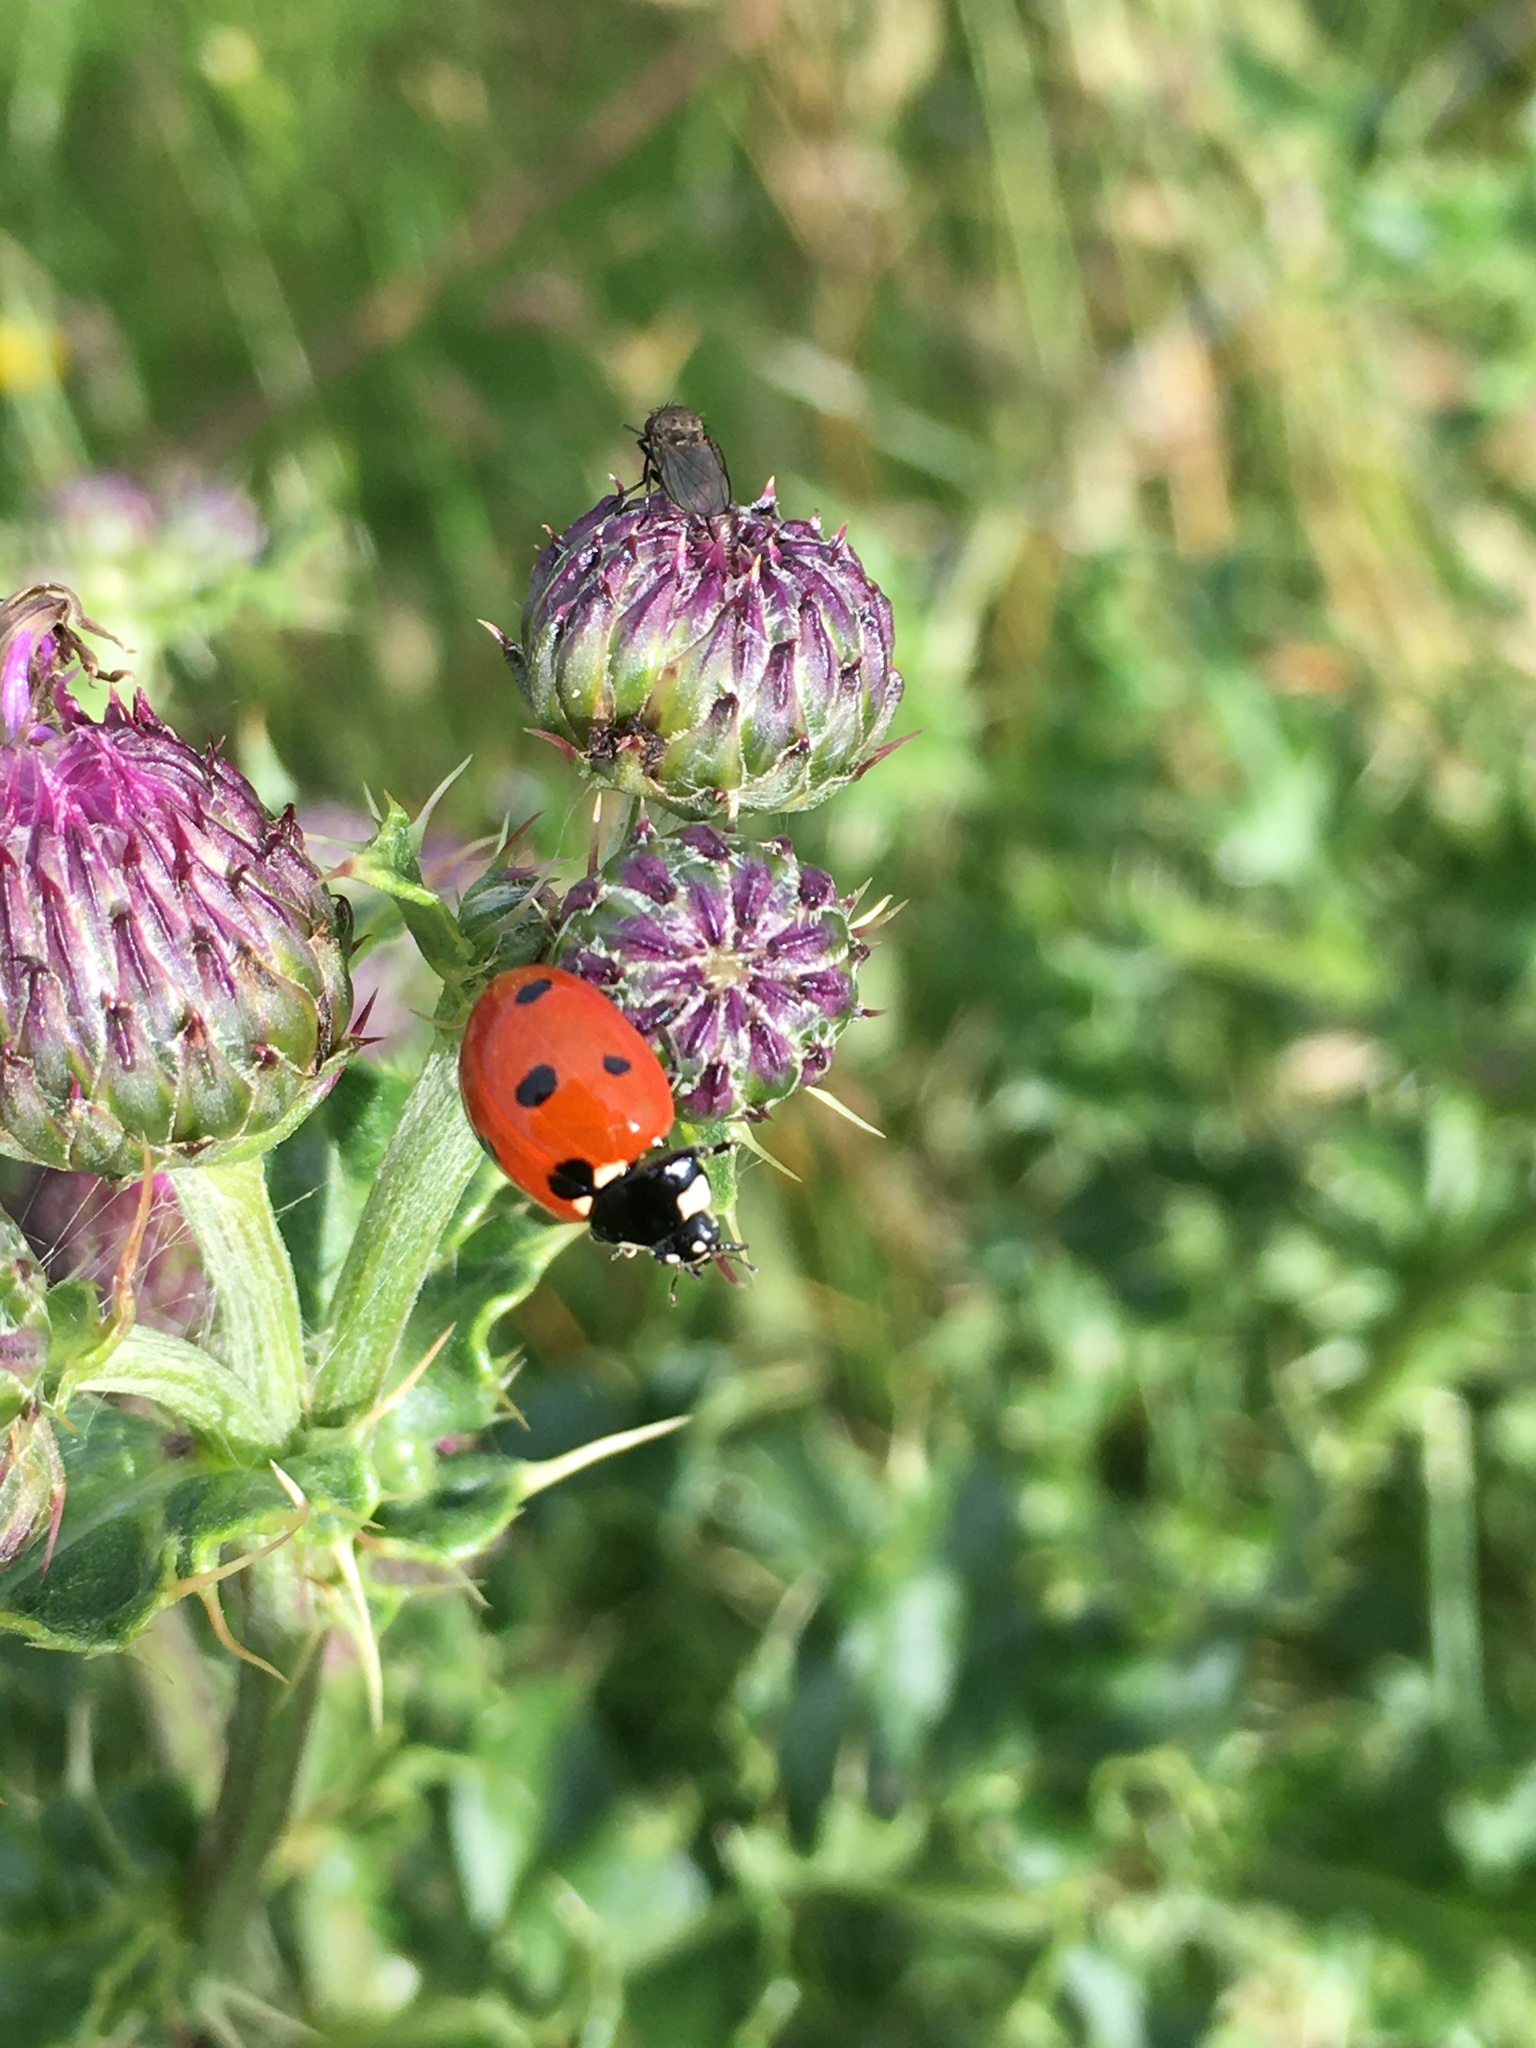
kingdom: Animalia
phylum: Arthropoda
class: Insecta
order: Coleoptera
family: Coccinellidae
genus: Coccinella
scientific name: Coccinella septempunctata
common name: Sevenspotted lady beetle
